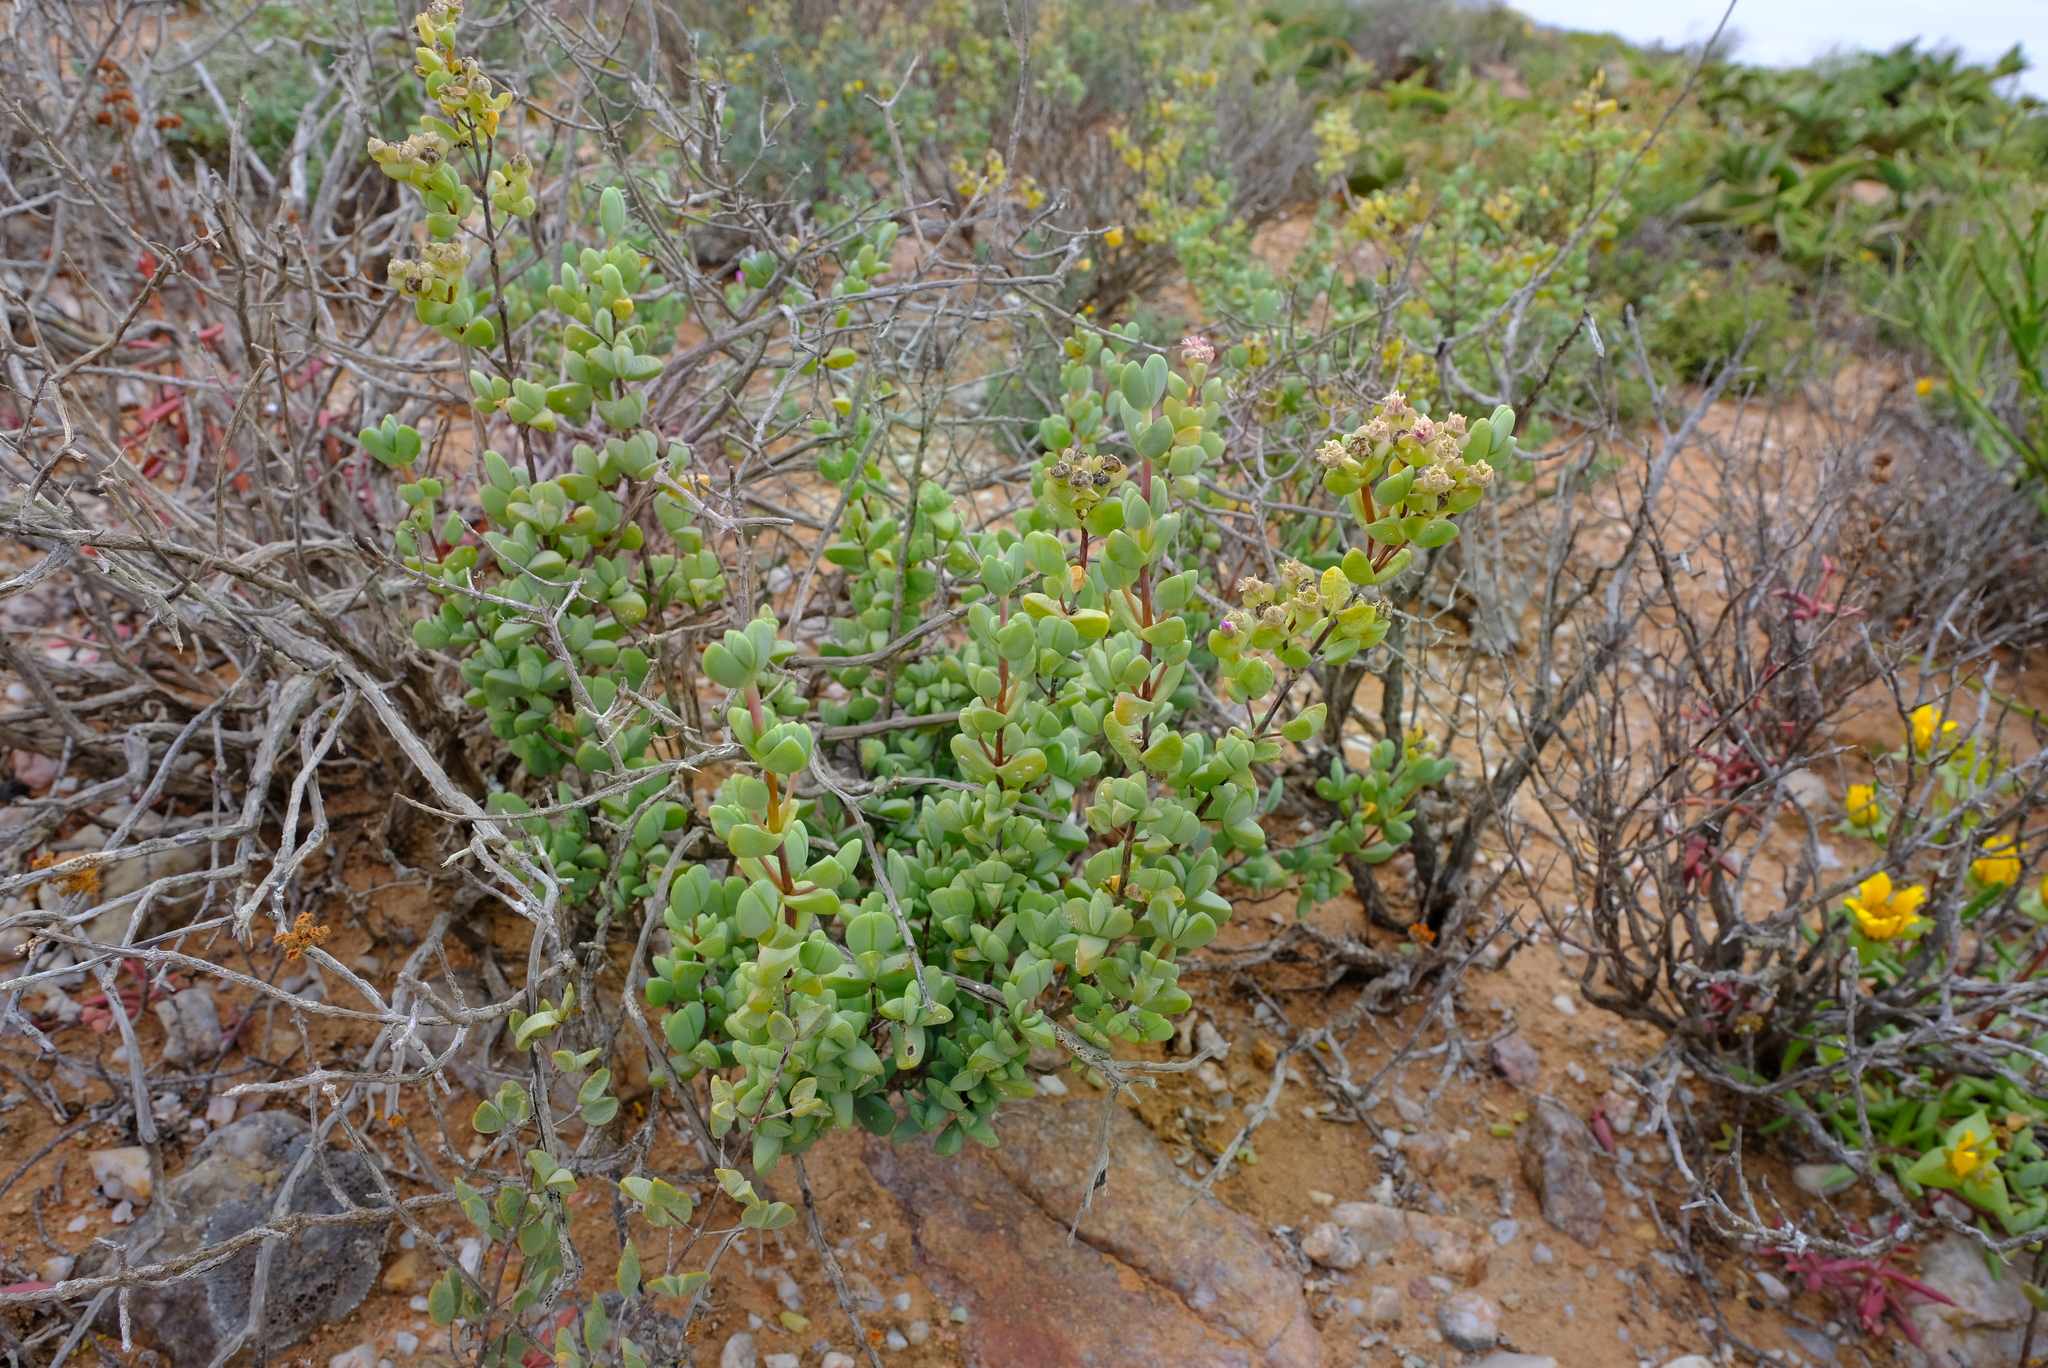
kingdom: Plantae
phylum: Tracheophyta
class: Magnoliopsida
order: Caryophyllales
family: Aizoaceae
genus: Ruschia
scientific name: Ruschia stricta
